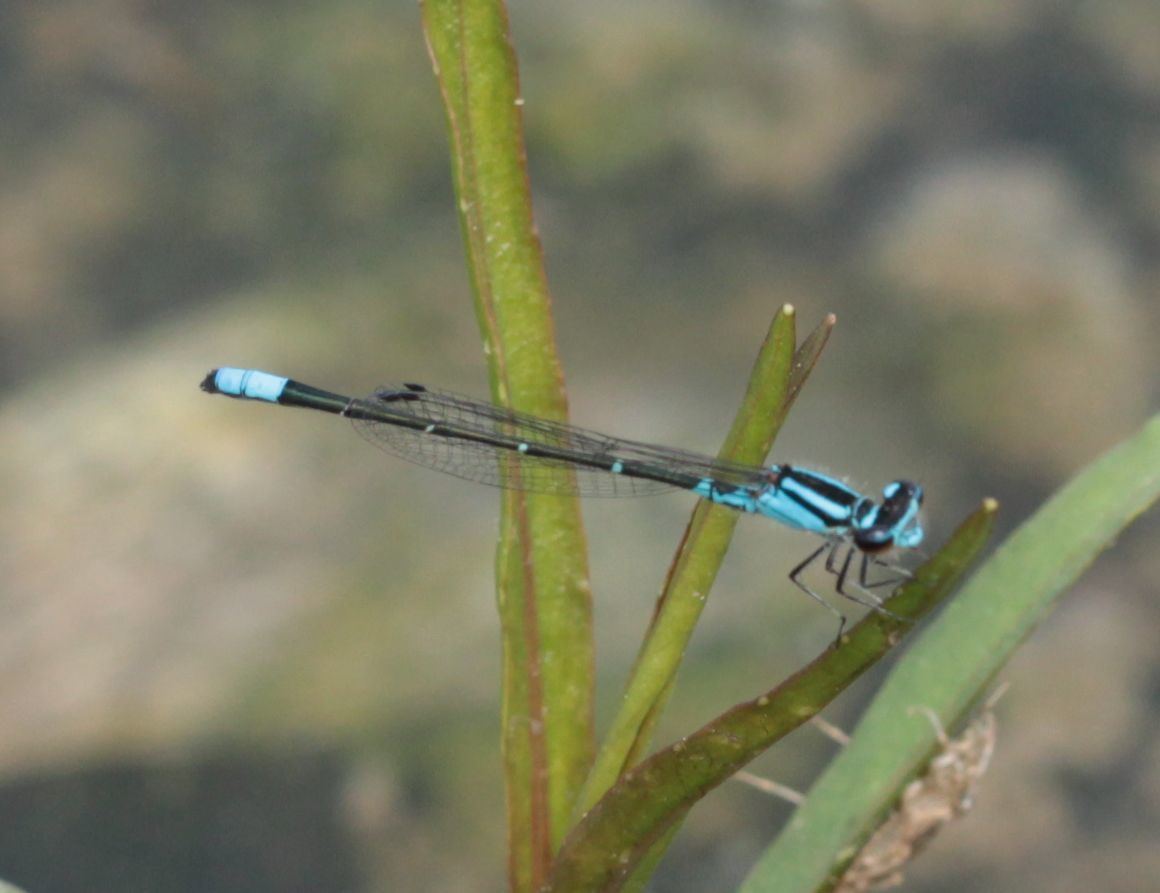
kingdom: Animalia
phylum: Arthropoda
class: Insecta
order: Odonata
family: Coenagrionidae
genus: Enallagma
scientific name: Enallagma geminatum
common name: Skimming bluet
